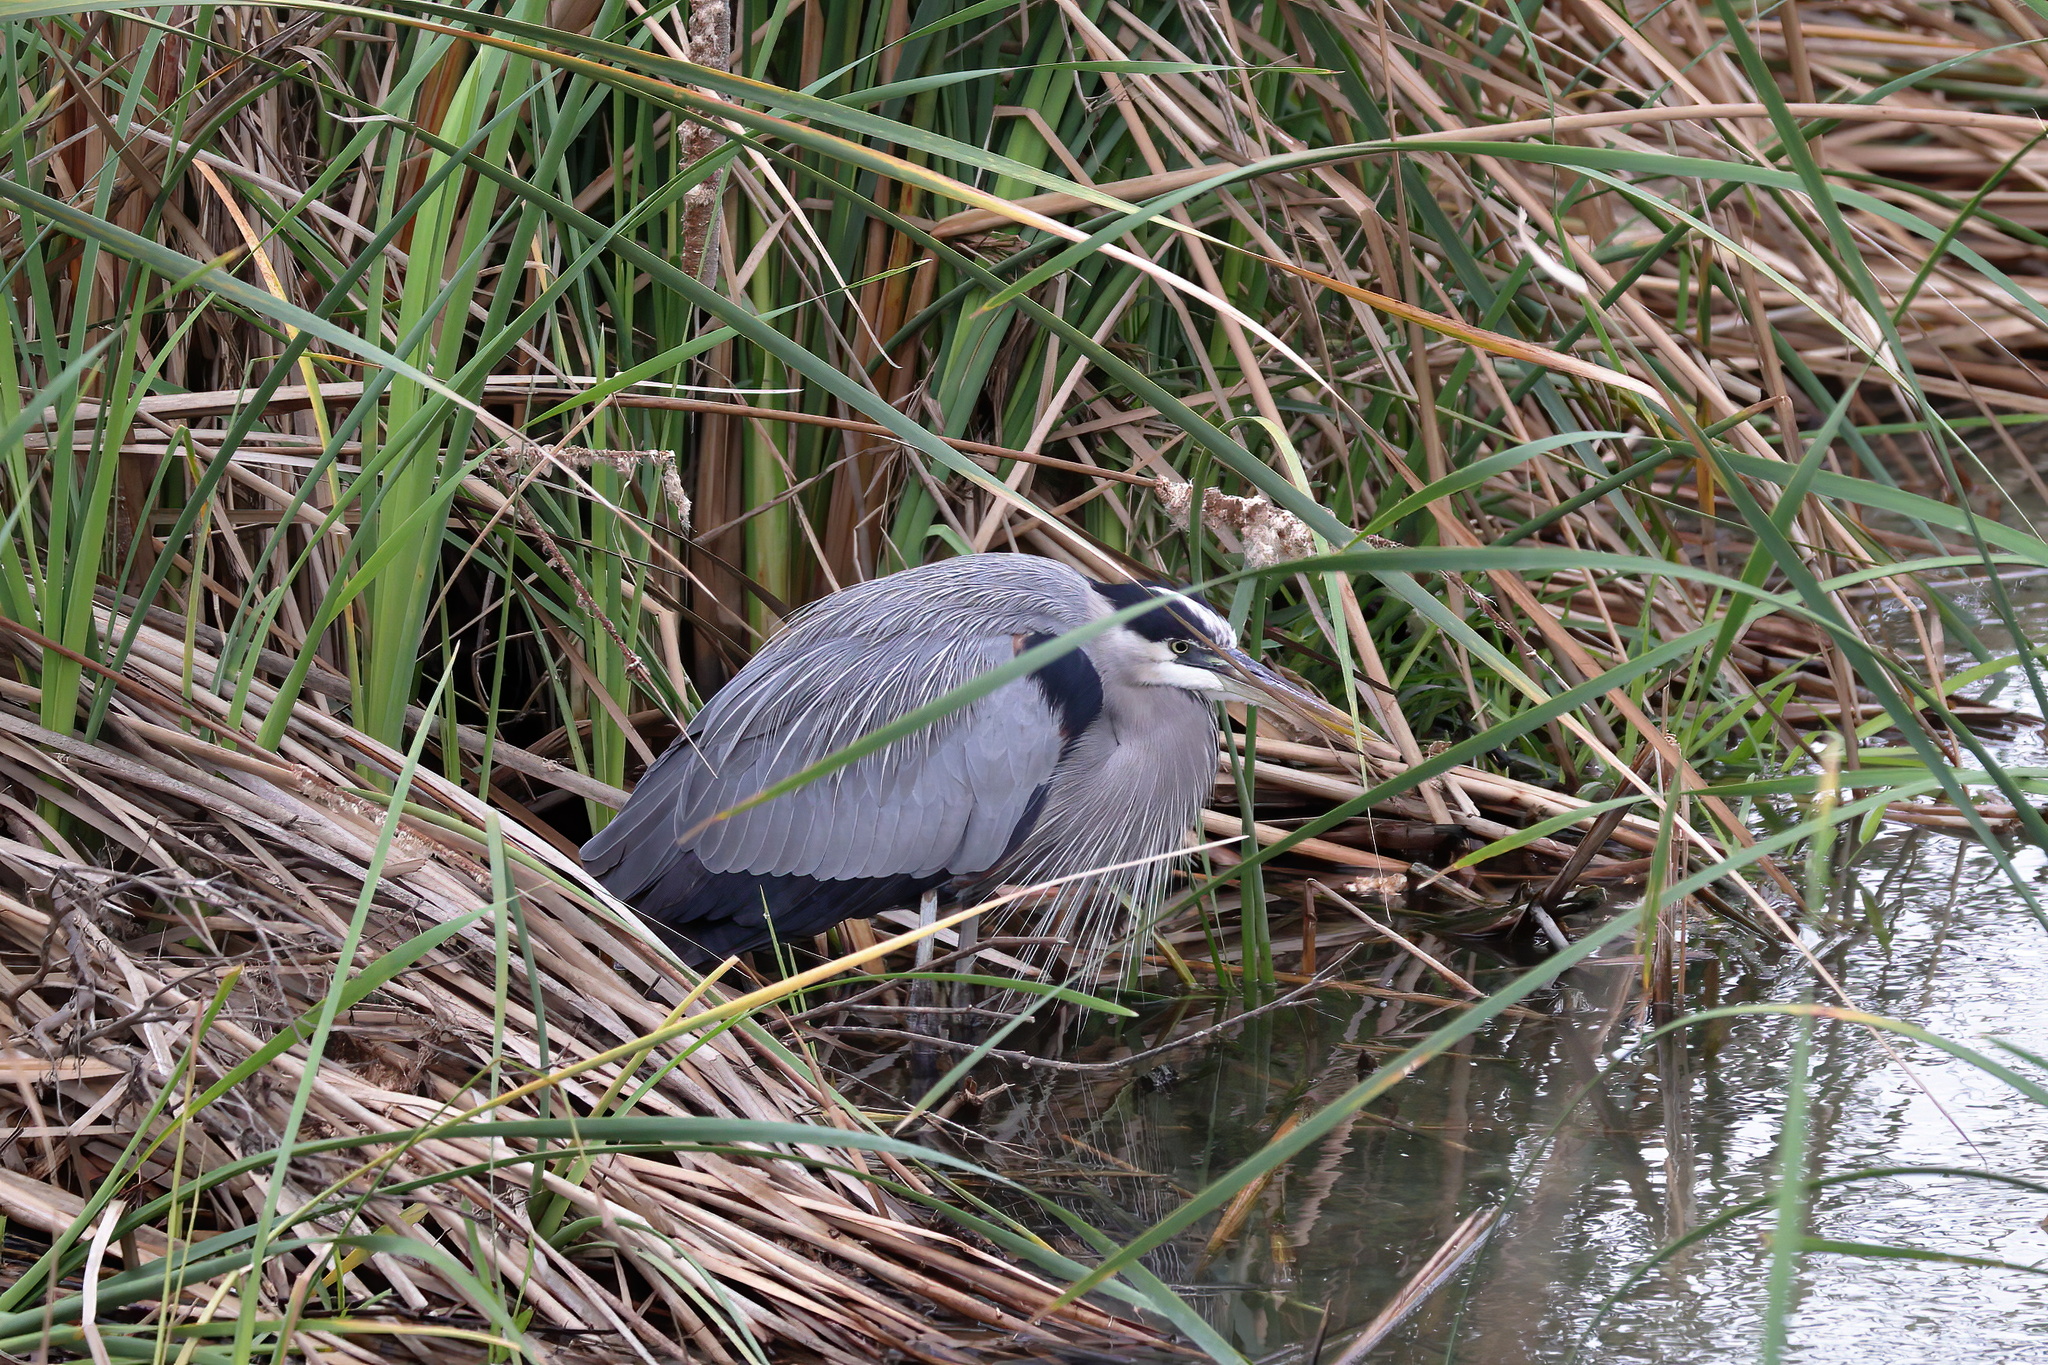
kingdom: Animalia
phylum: Chordata
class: Aves
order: Pelecaniformes
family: Ardeidae
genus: Ardea
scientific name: Ardea herodias
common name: Great blue heron
